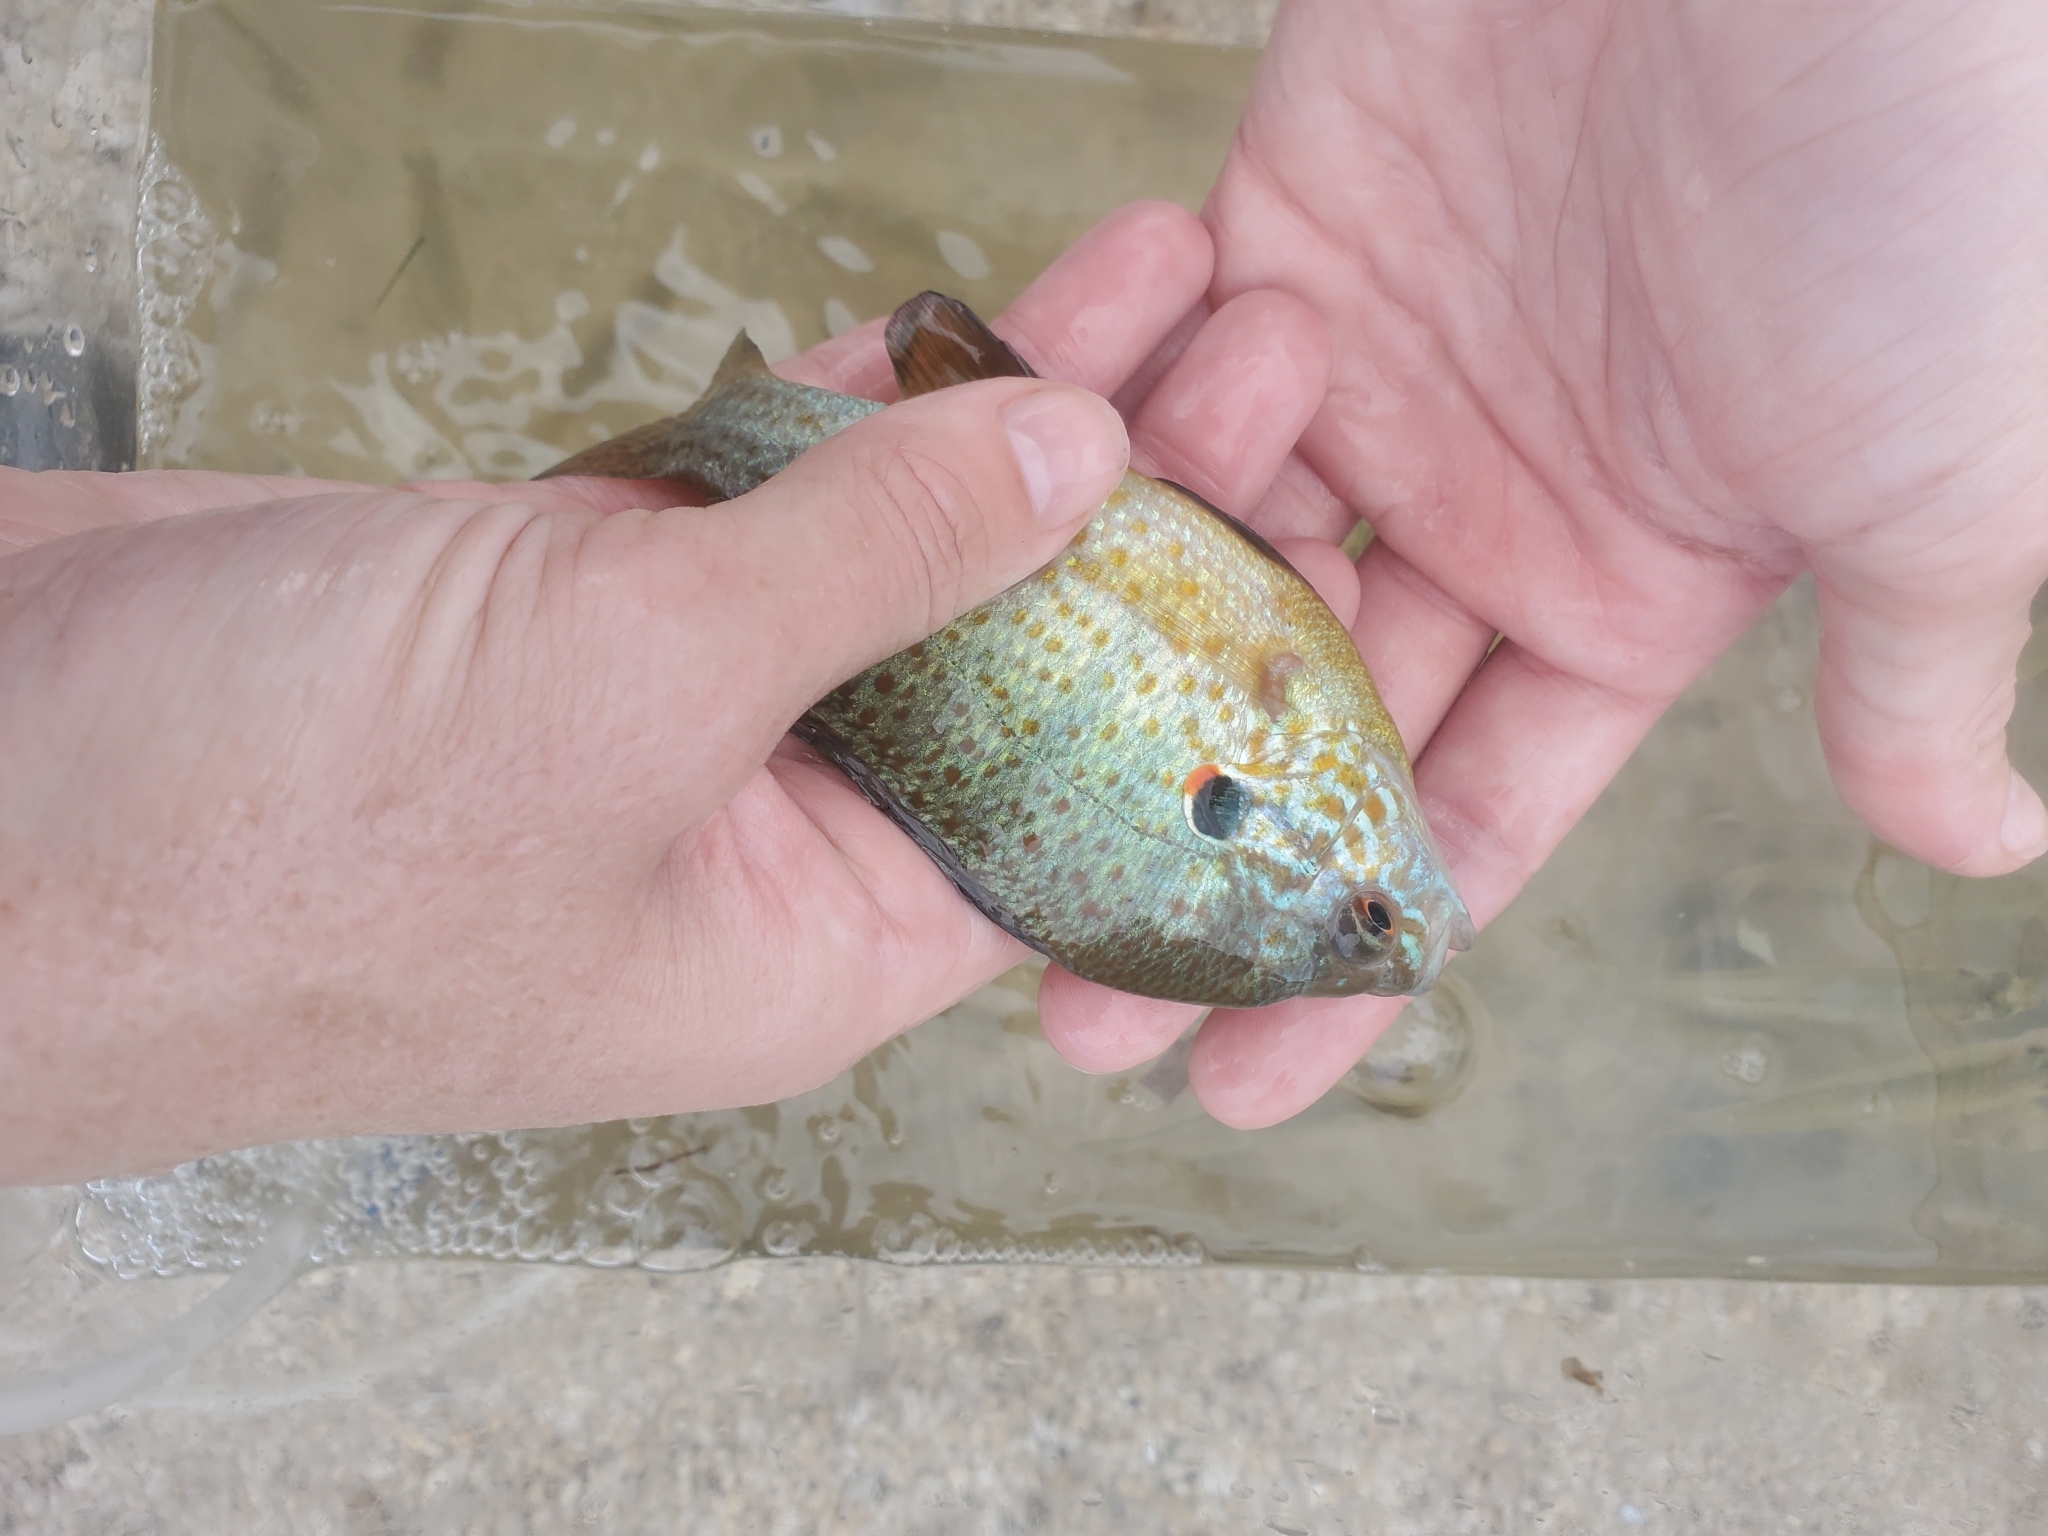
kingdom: Animalia
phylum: Chordata
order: Perciformes
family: Centrarchidae
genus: Lepomis
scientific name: Lepomis gibbosus
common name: Pumpkinseed
